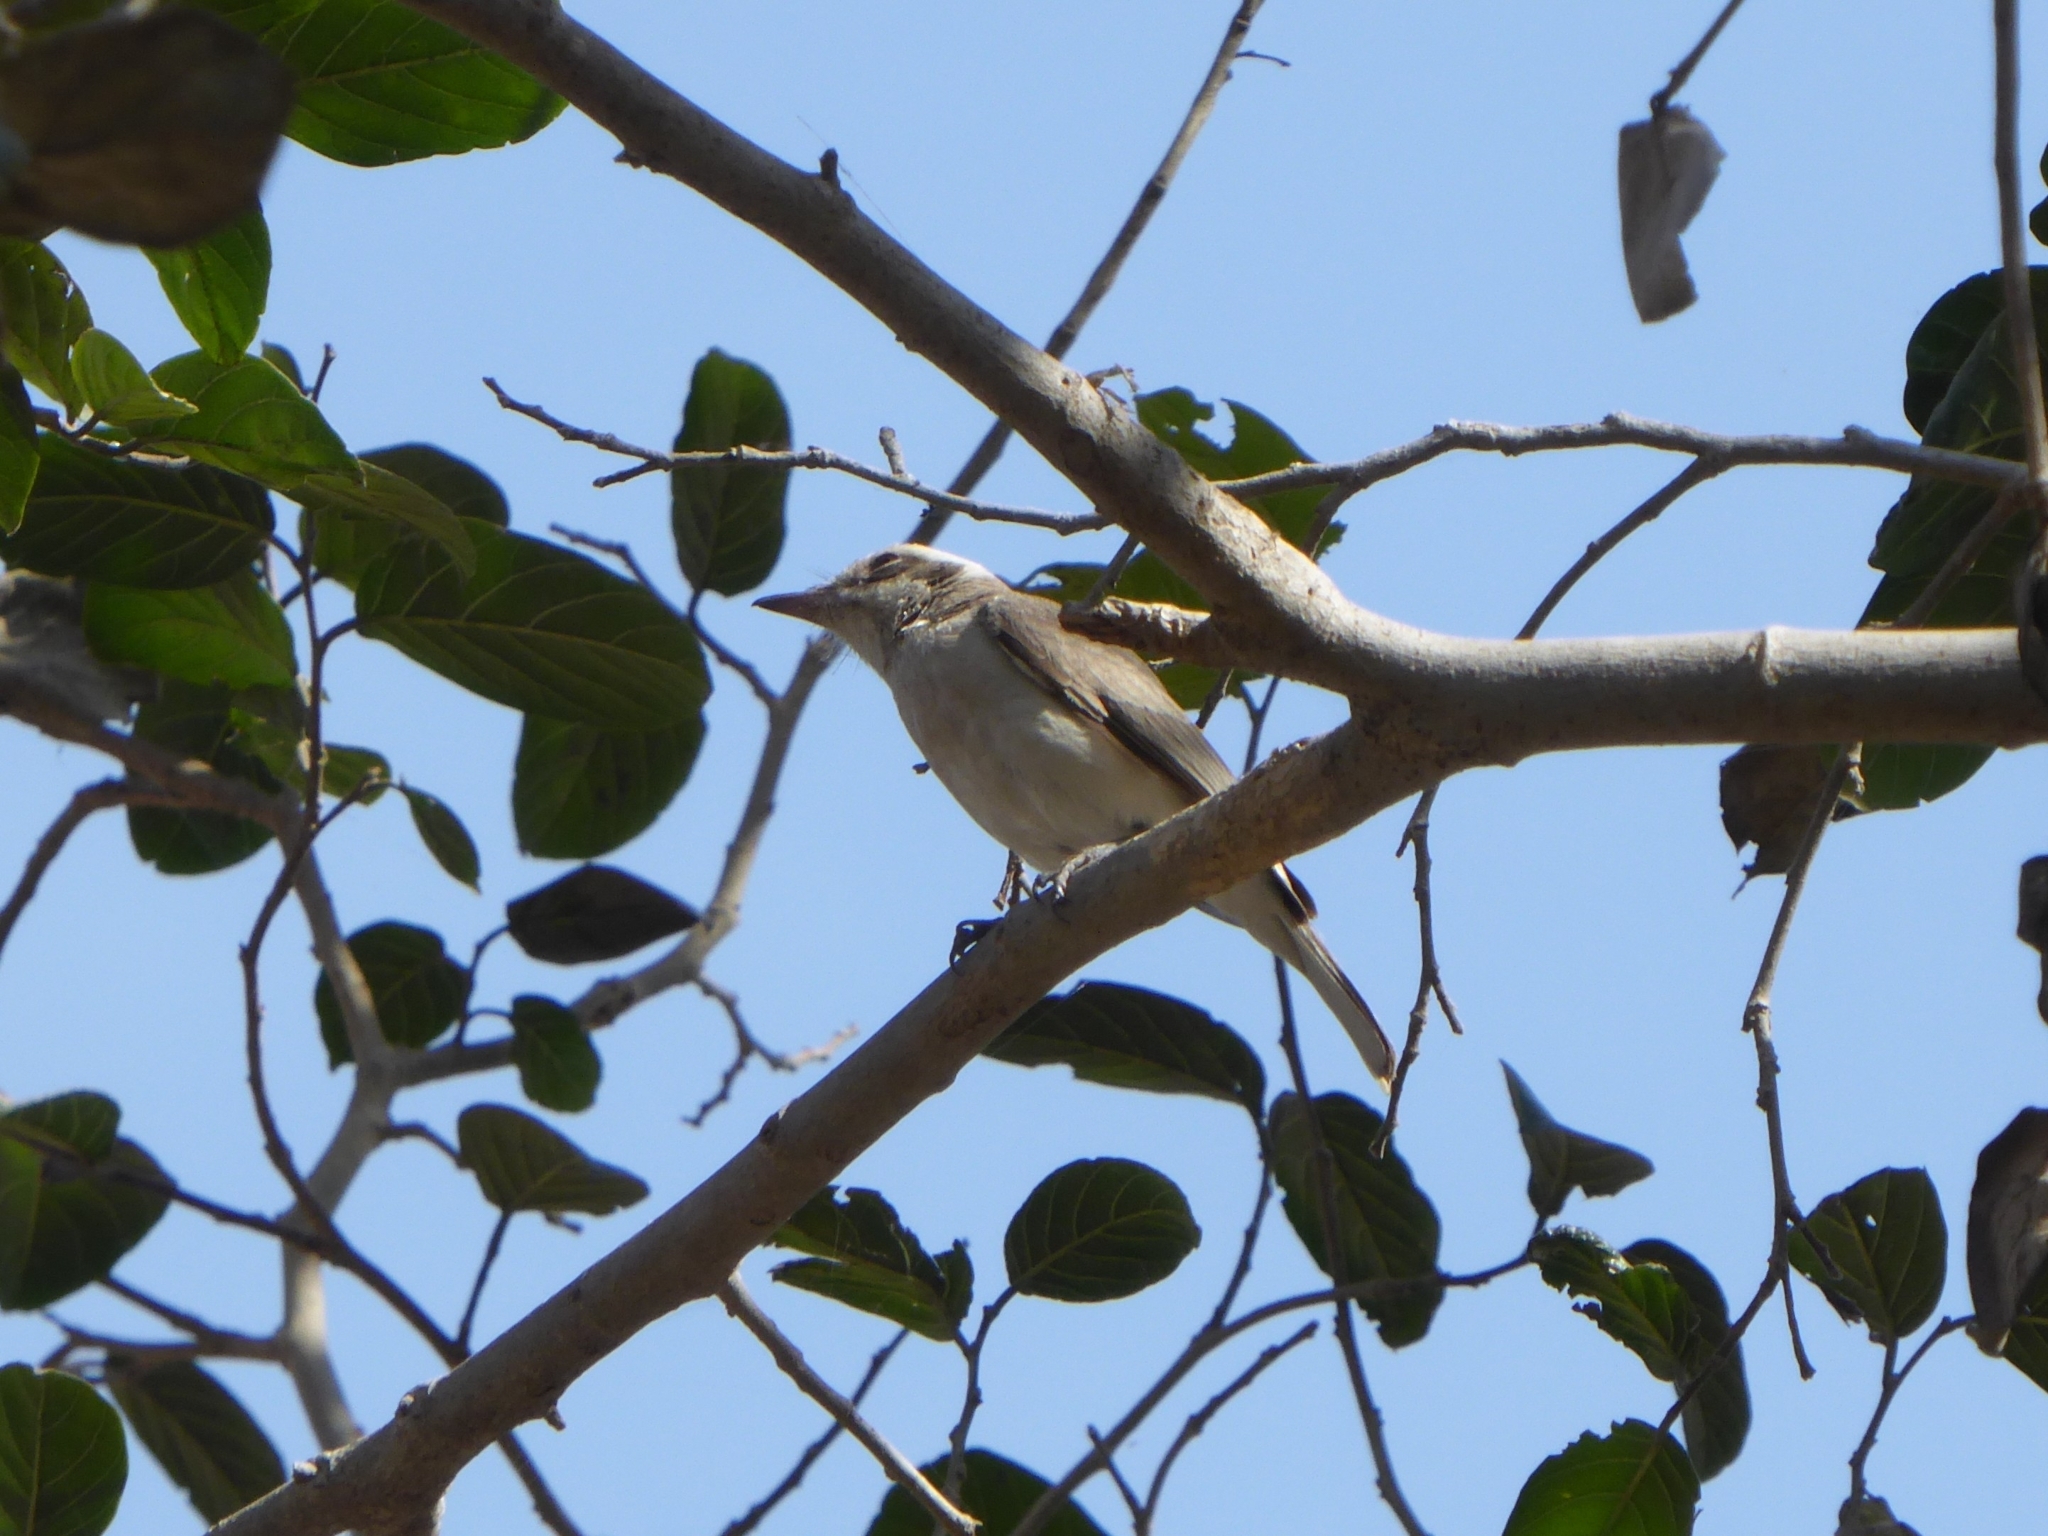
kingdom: Animalia
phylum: Chordata
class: Aves
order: Passeriformes
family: Tephrodornithidae
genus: Tephrodornis
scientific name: Tephrodornis pondicerianus
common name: Common woodshrike
